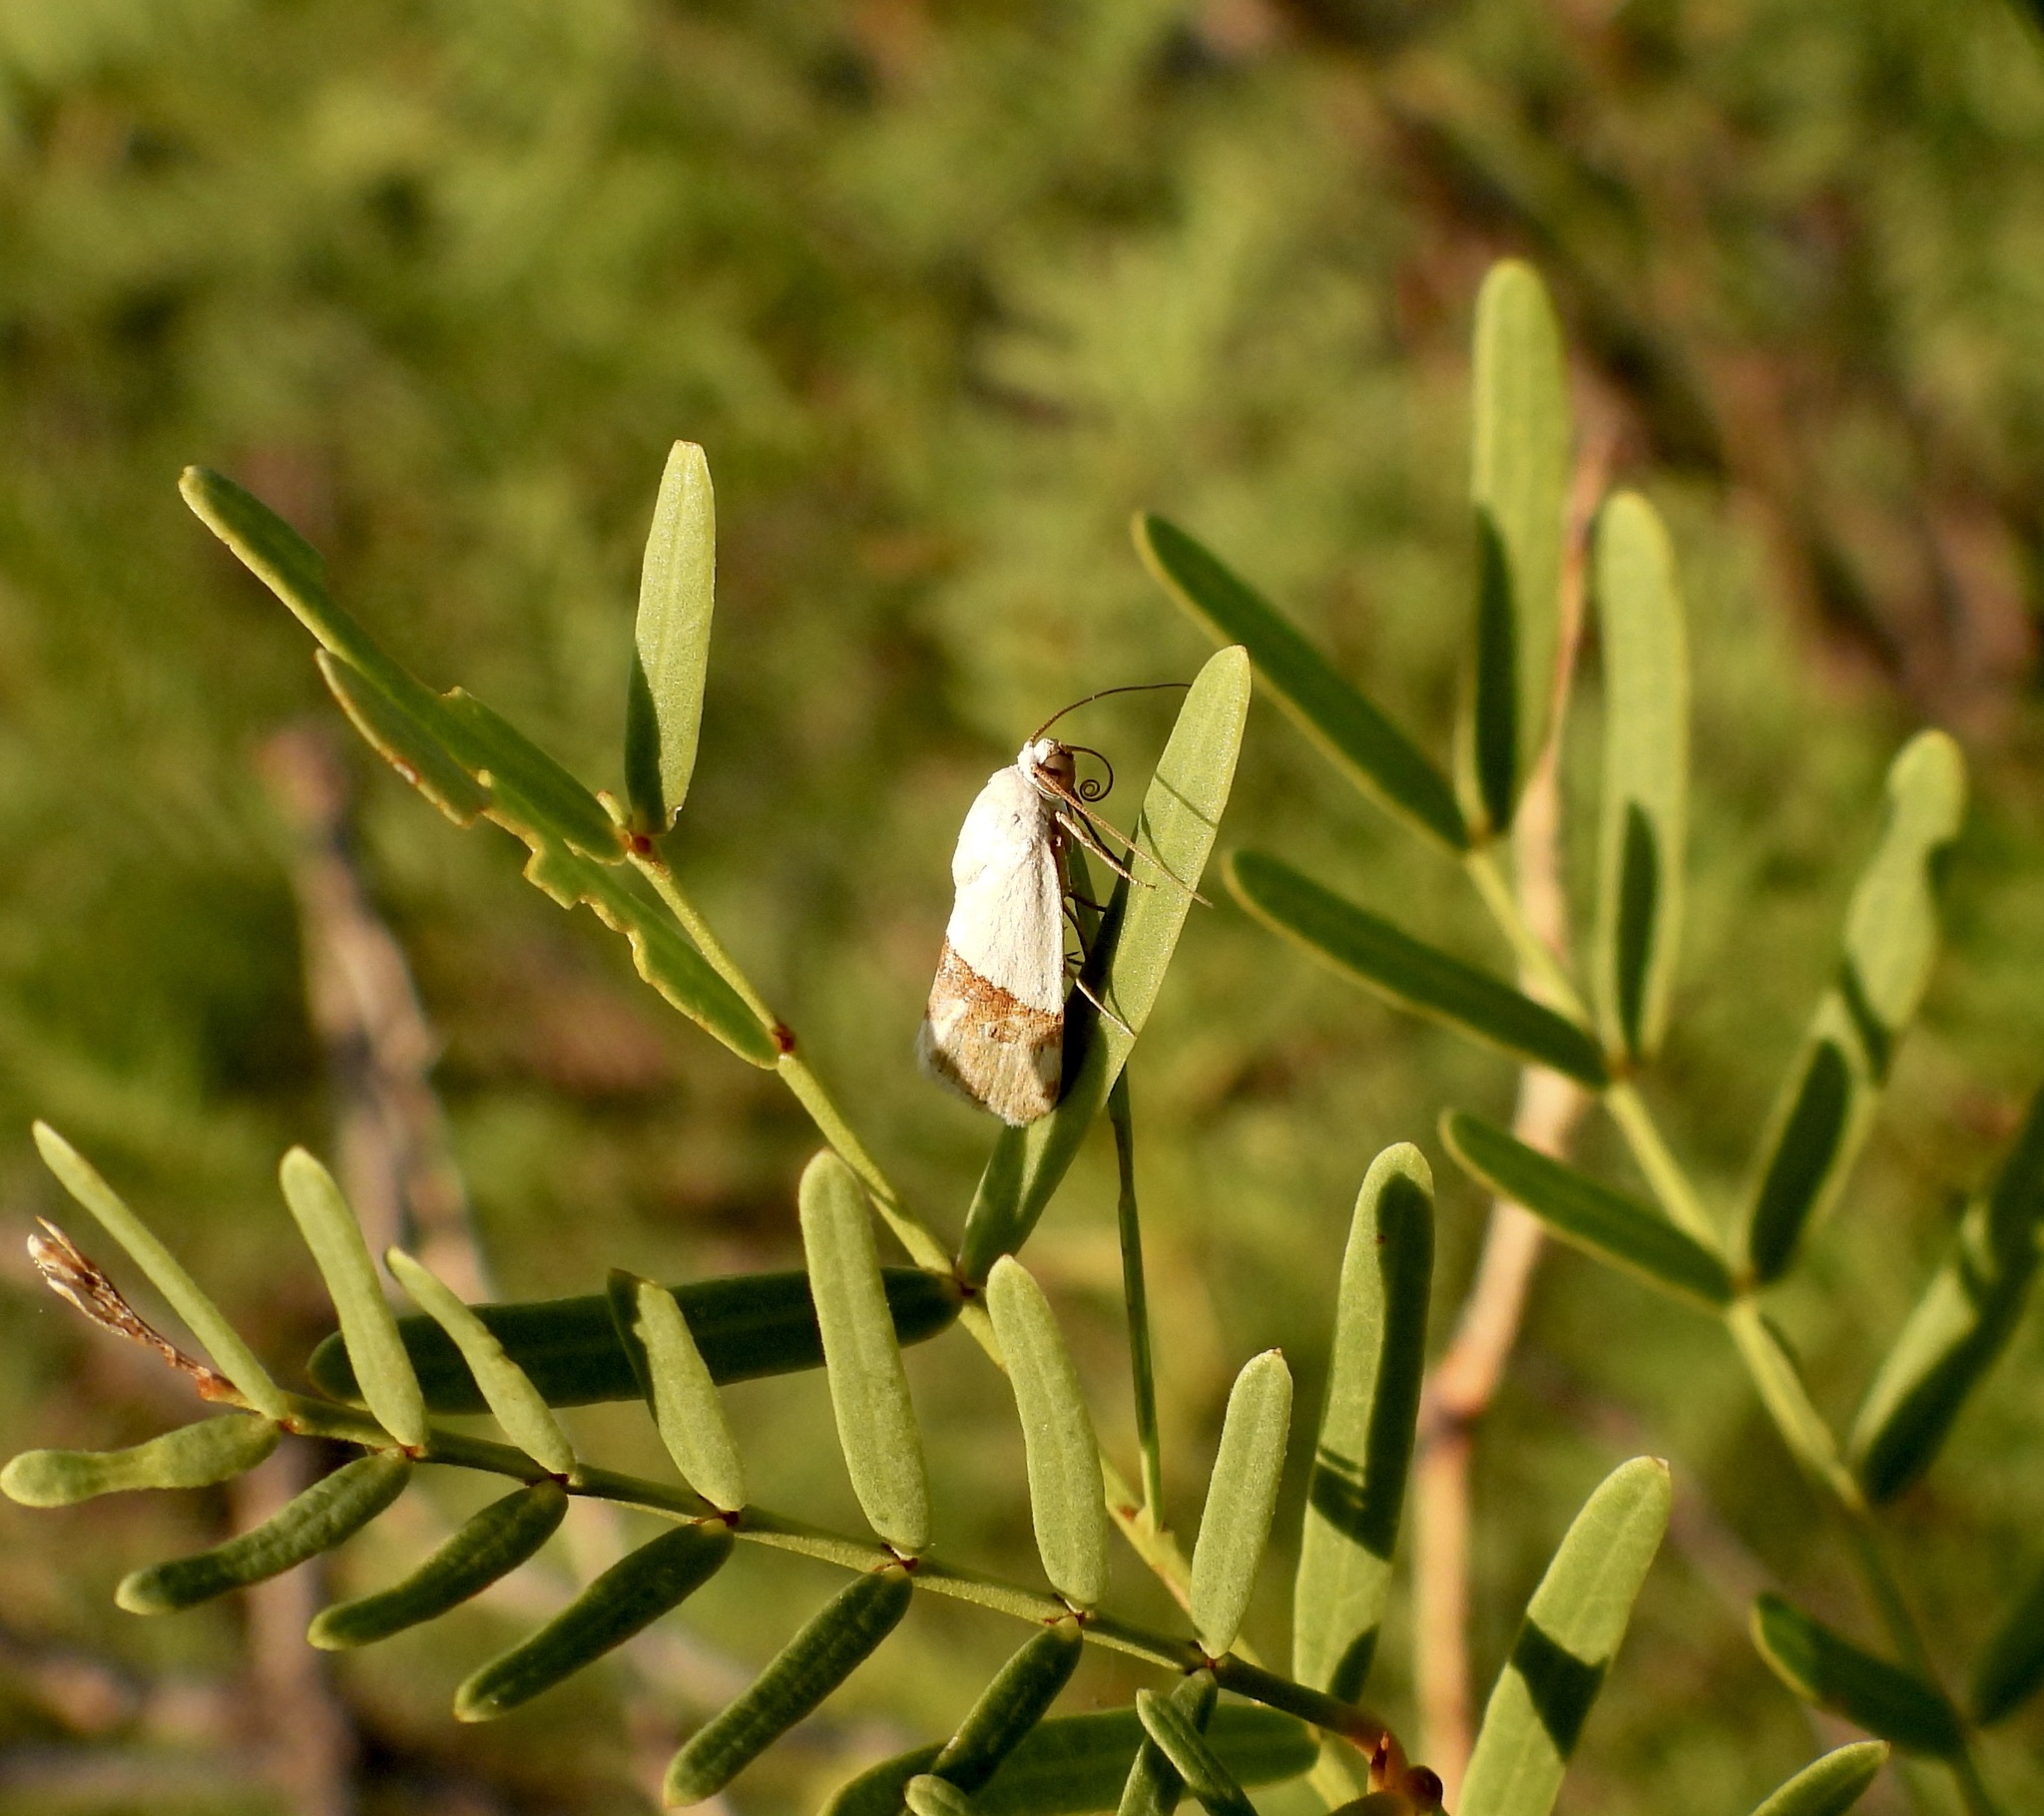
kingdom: Animalia
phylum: Arthropoda
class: Insecta
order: Lepidoptera
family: Noctuidae
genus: Ponometia
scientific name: Ponometia elegantula
